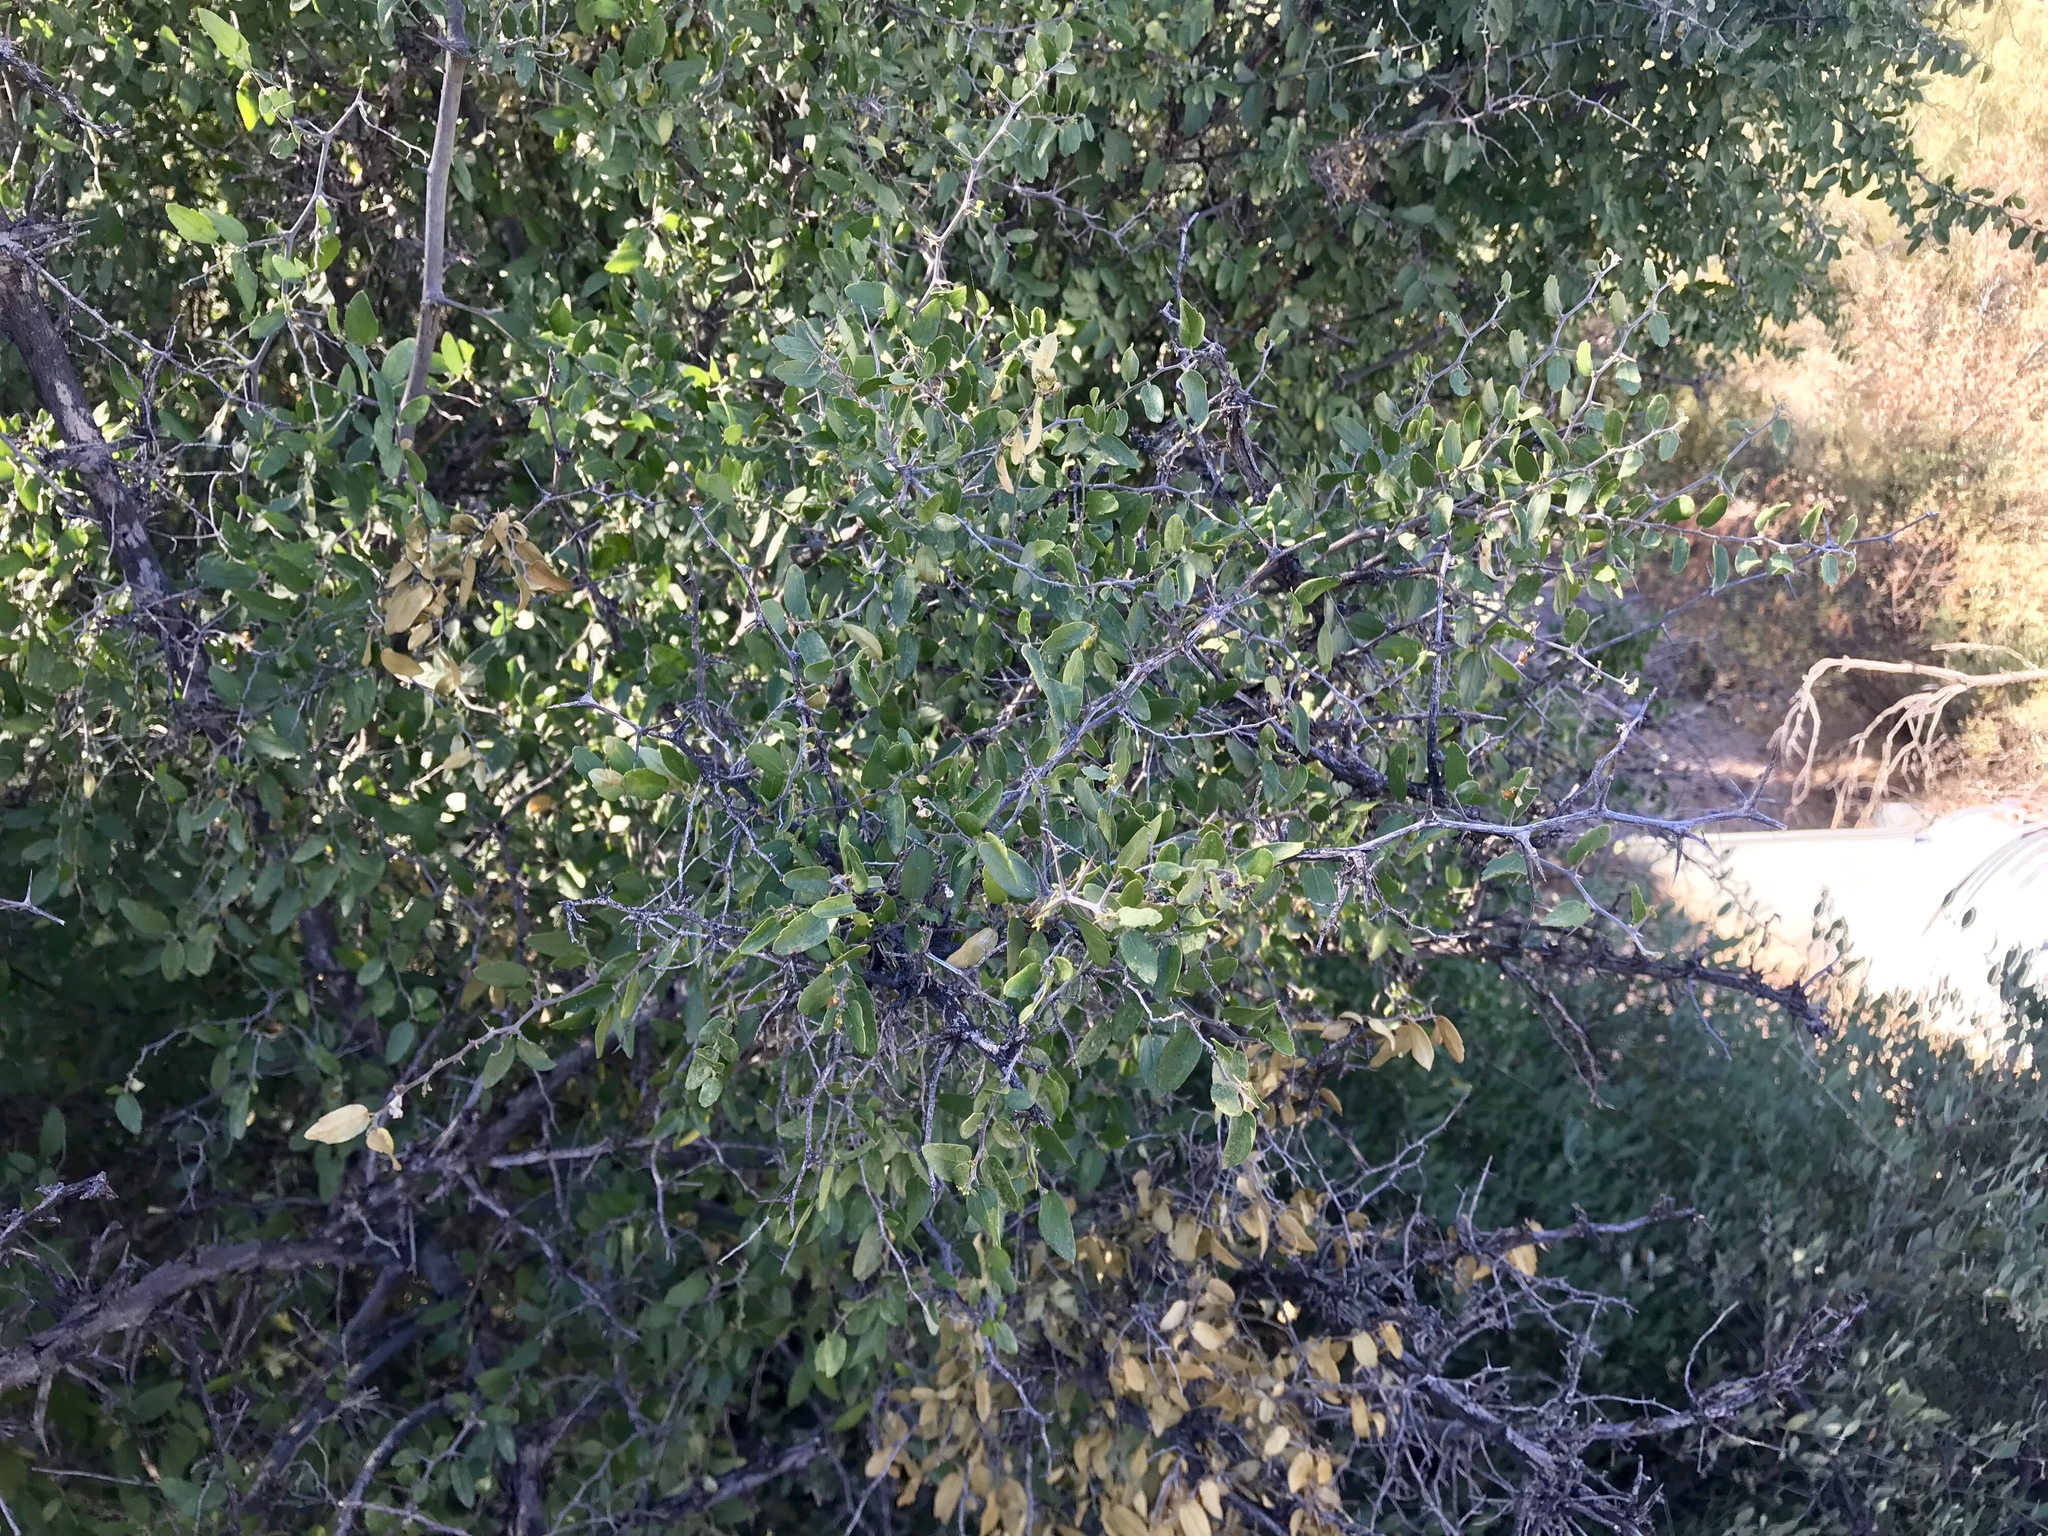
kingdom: Plantae
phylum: Tracheophyta
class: Magnoliopsida
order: Rosales
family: Cannabaceae
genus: Celtis
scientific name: Celtis pallida
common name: Desert hackberry
